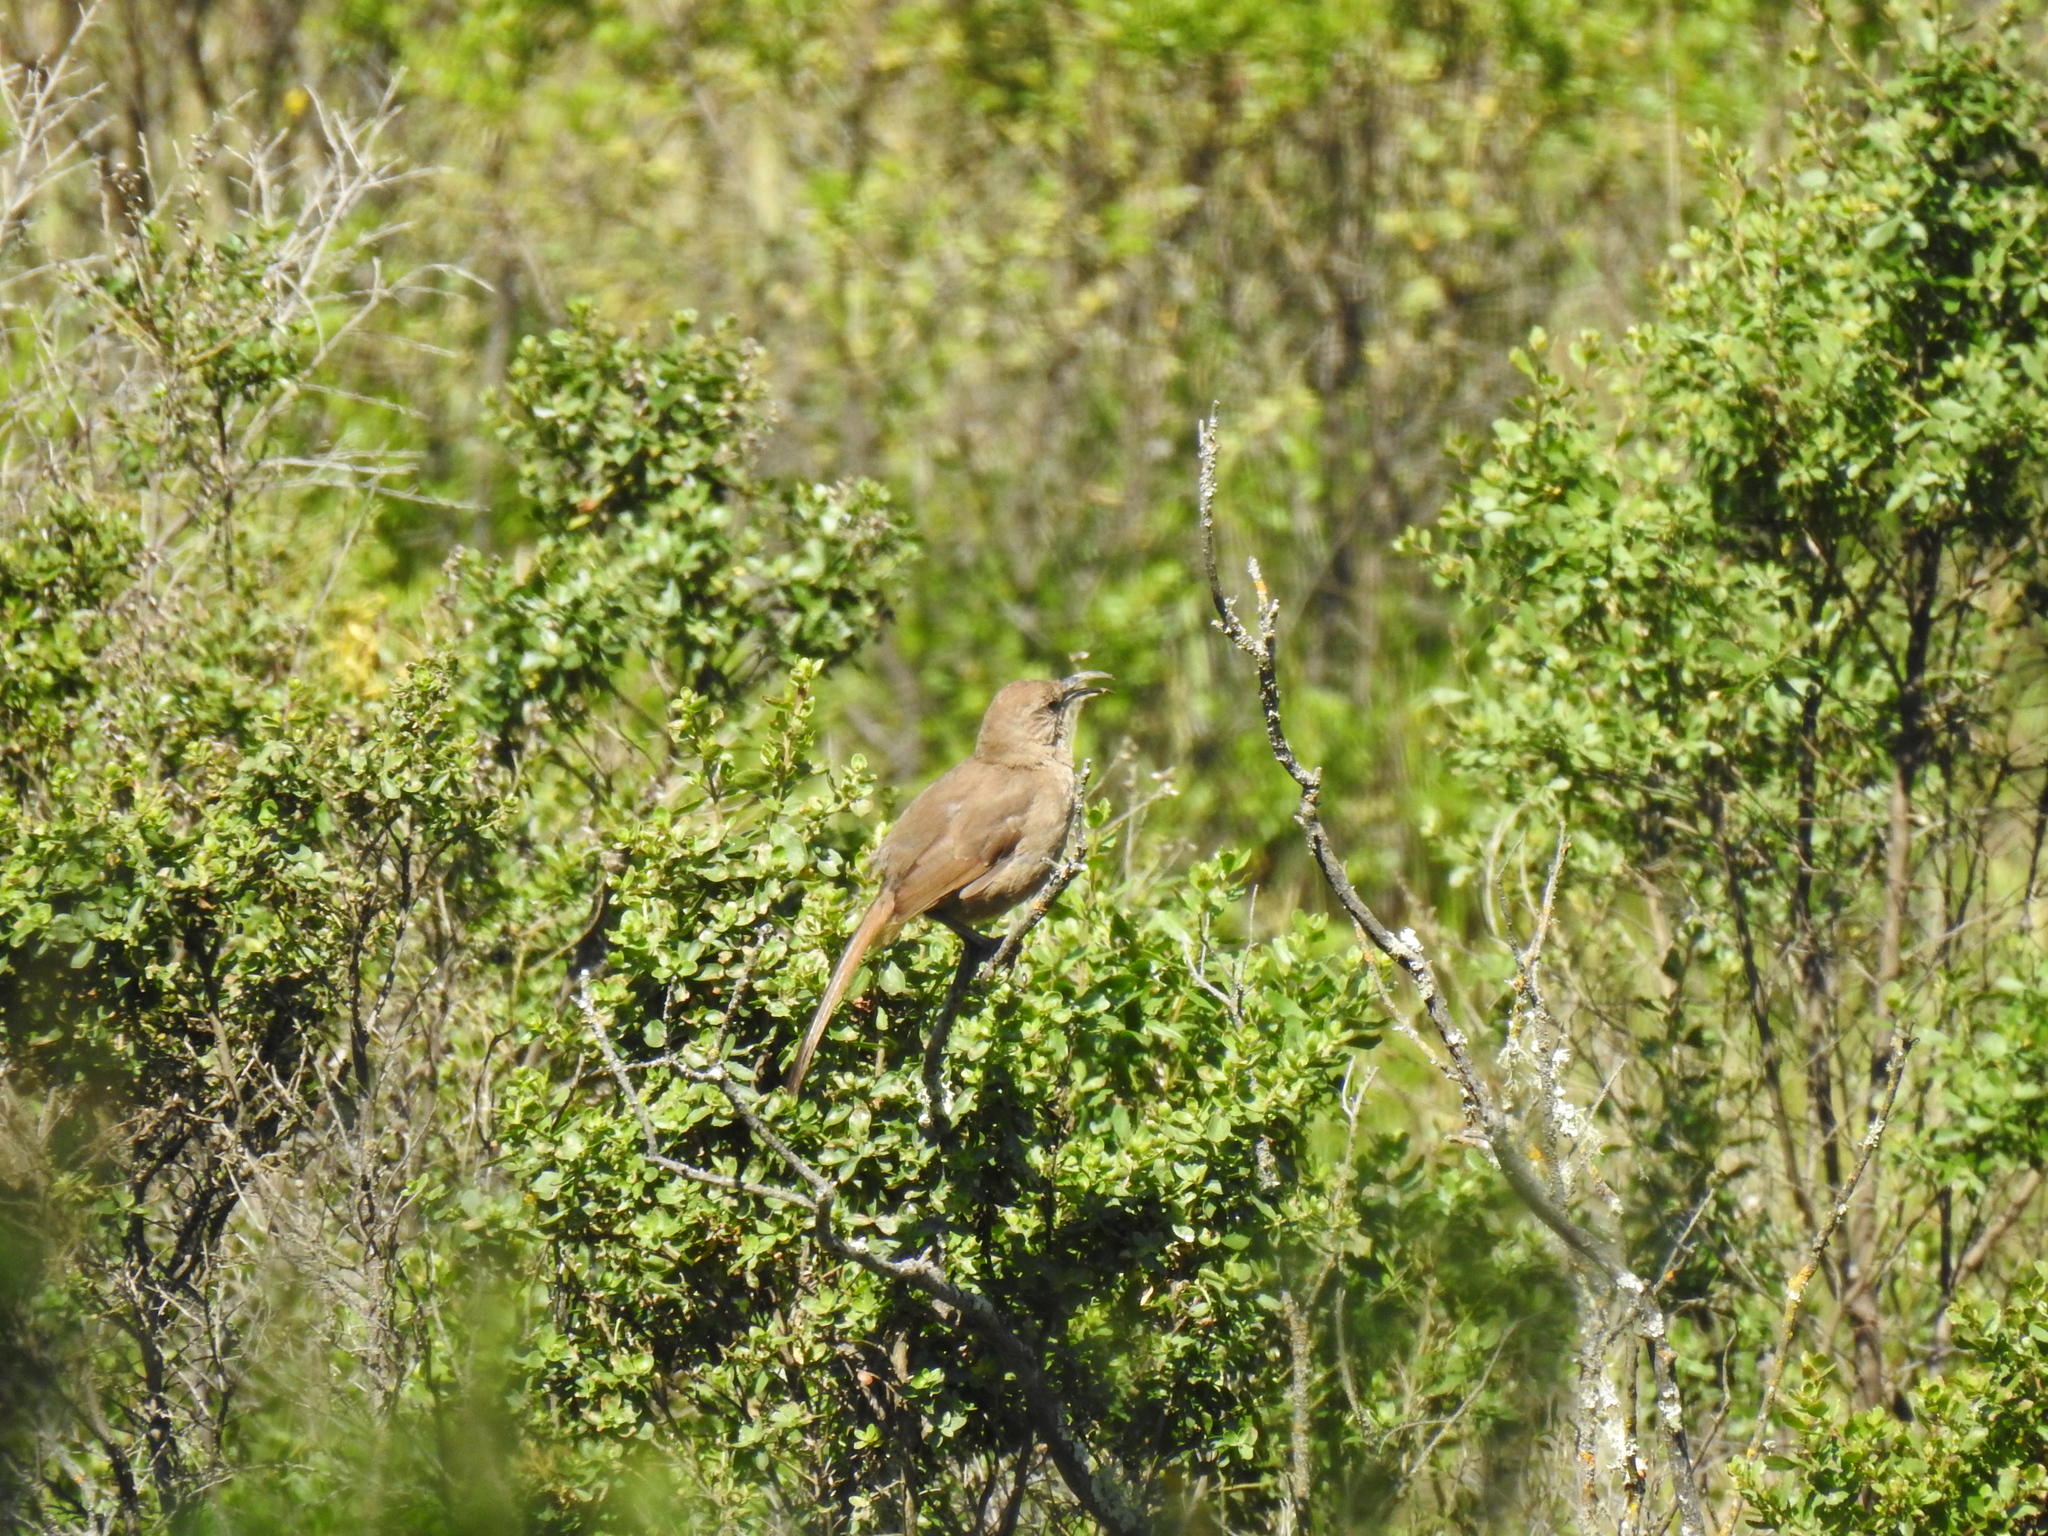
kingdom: Animalia
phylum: Chordata
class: Aves
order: Passeriformes
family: Mimidae
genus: Toxostoma
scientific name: Toxostoma redivivum
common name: California thrasher
